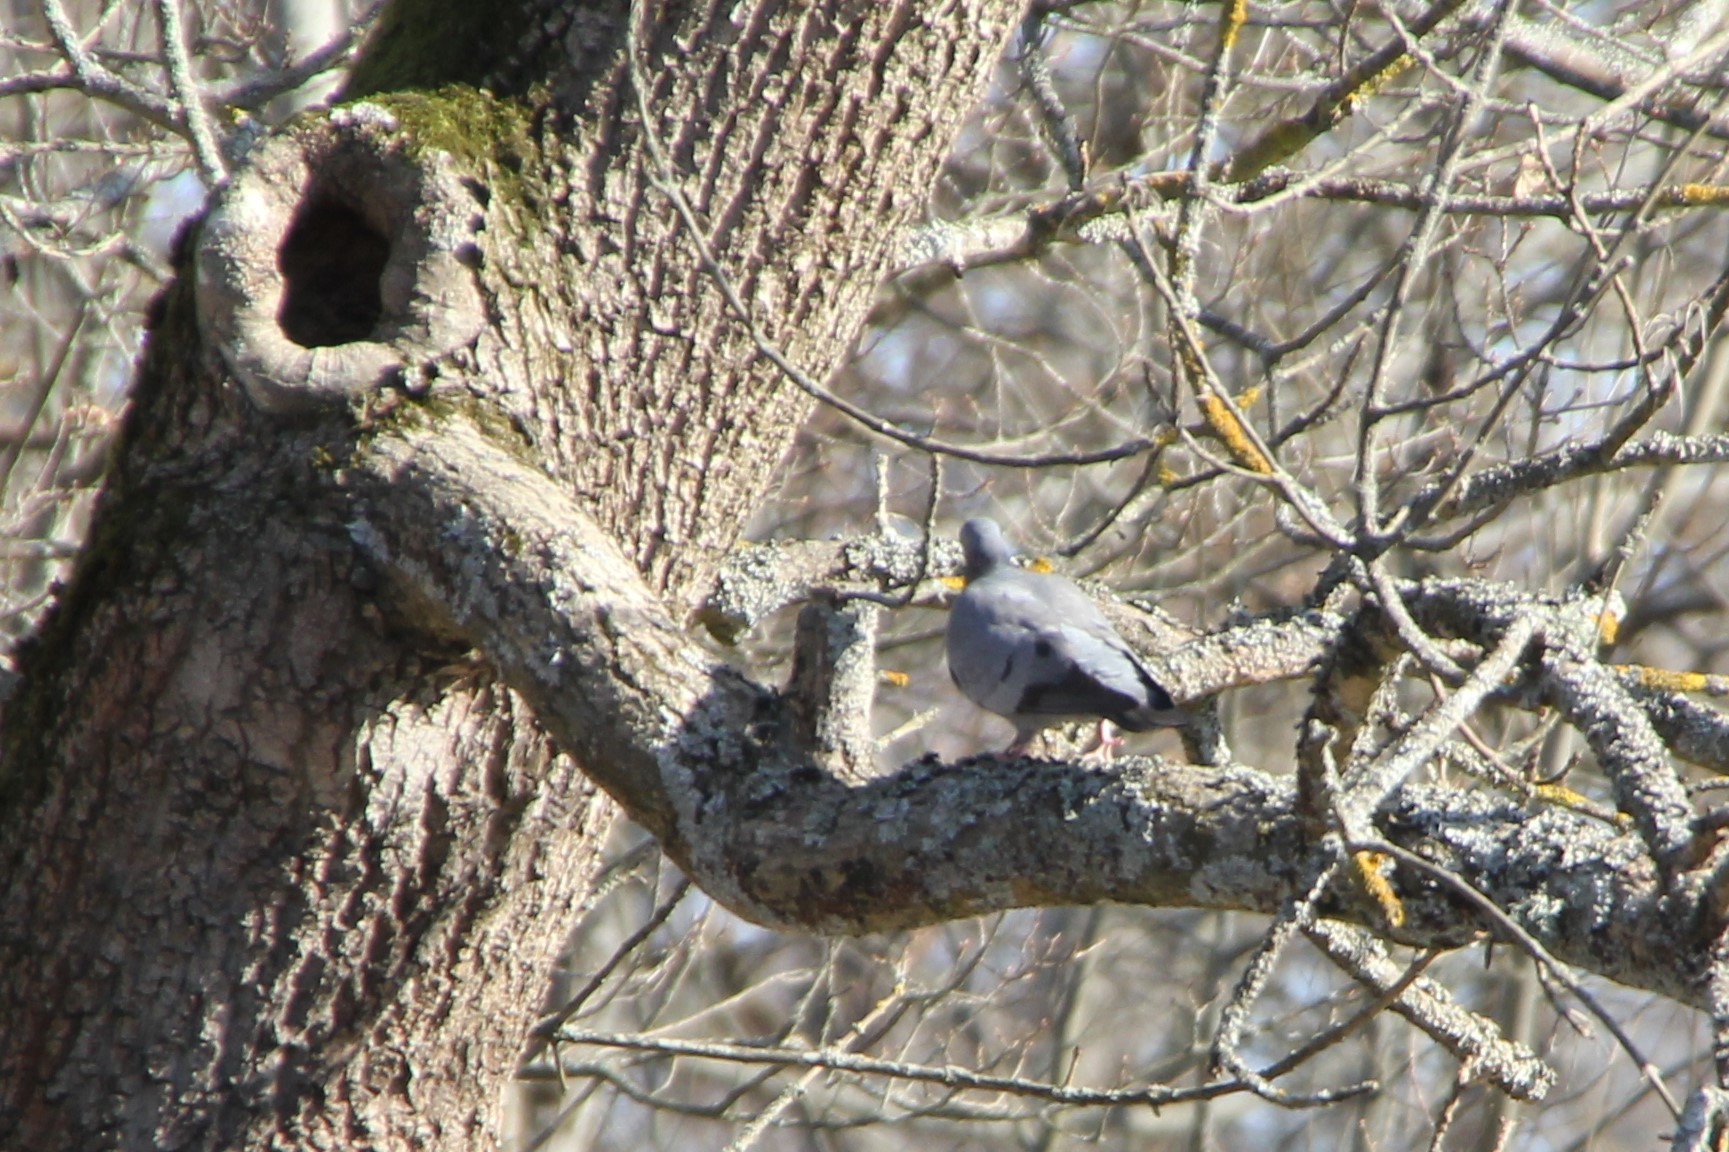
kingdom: Animalia
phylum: Chordata
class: Aves
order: Columbiformes
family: Columbidae
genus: Columba
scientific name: Columba palumbus
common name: Common wood pigeon
